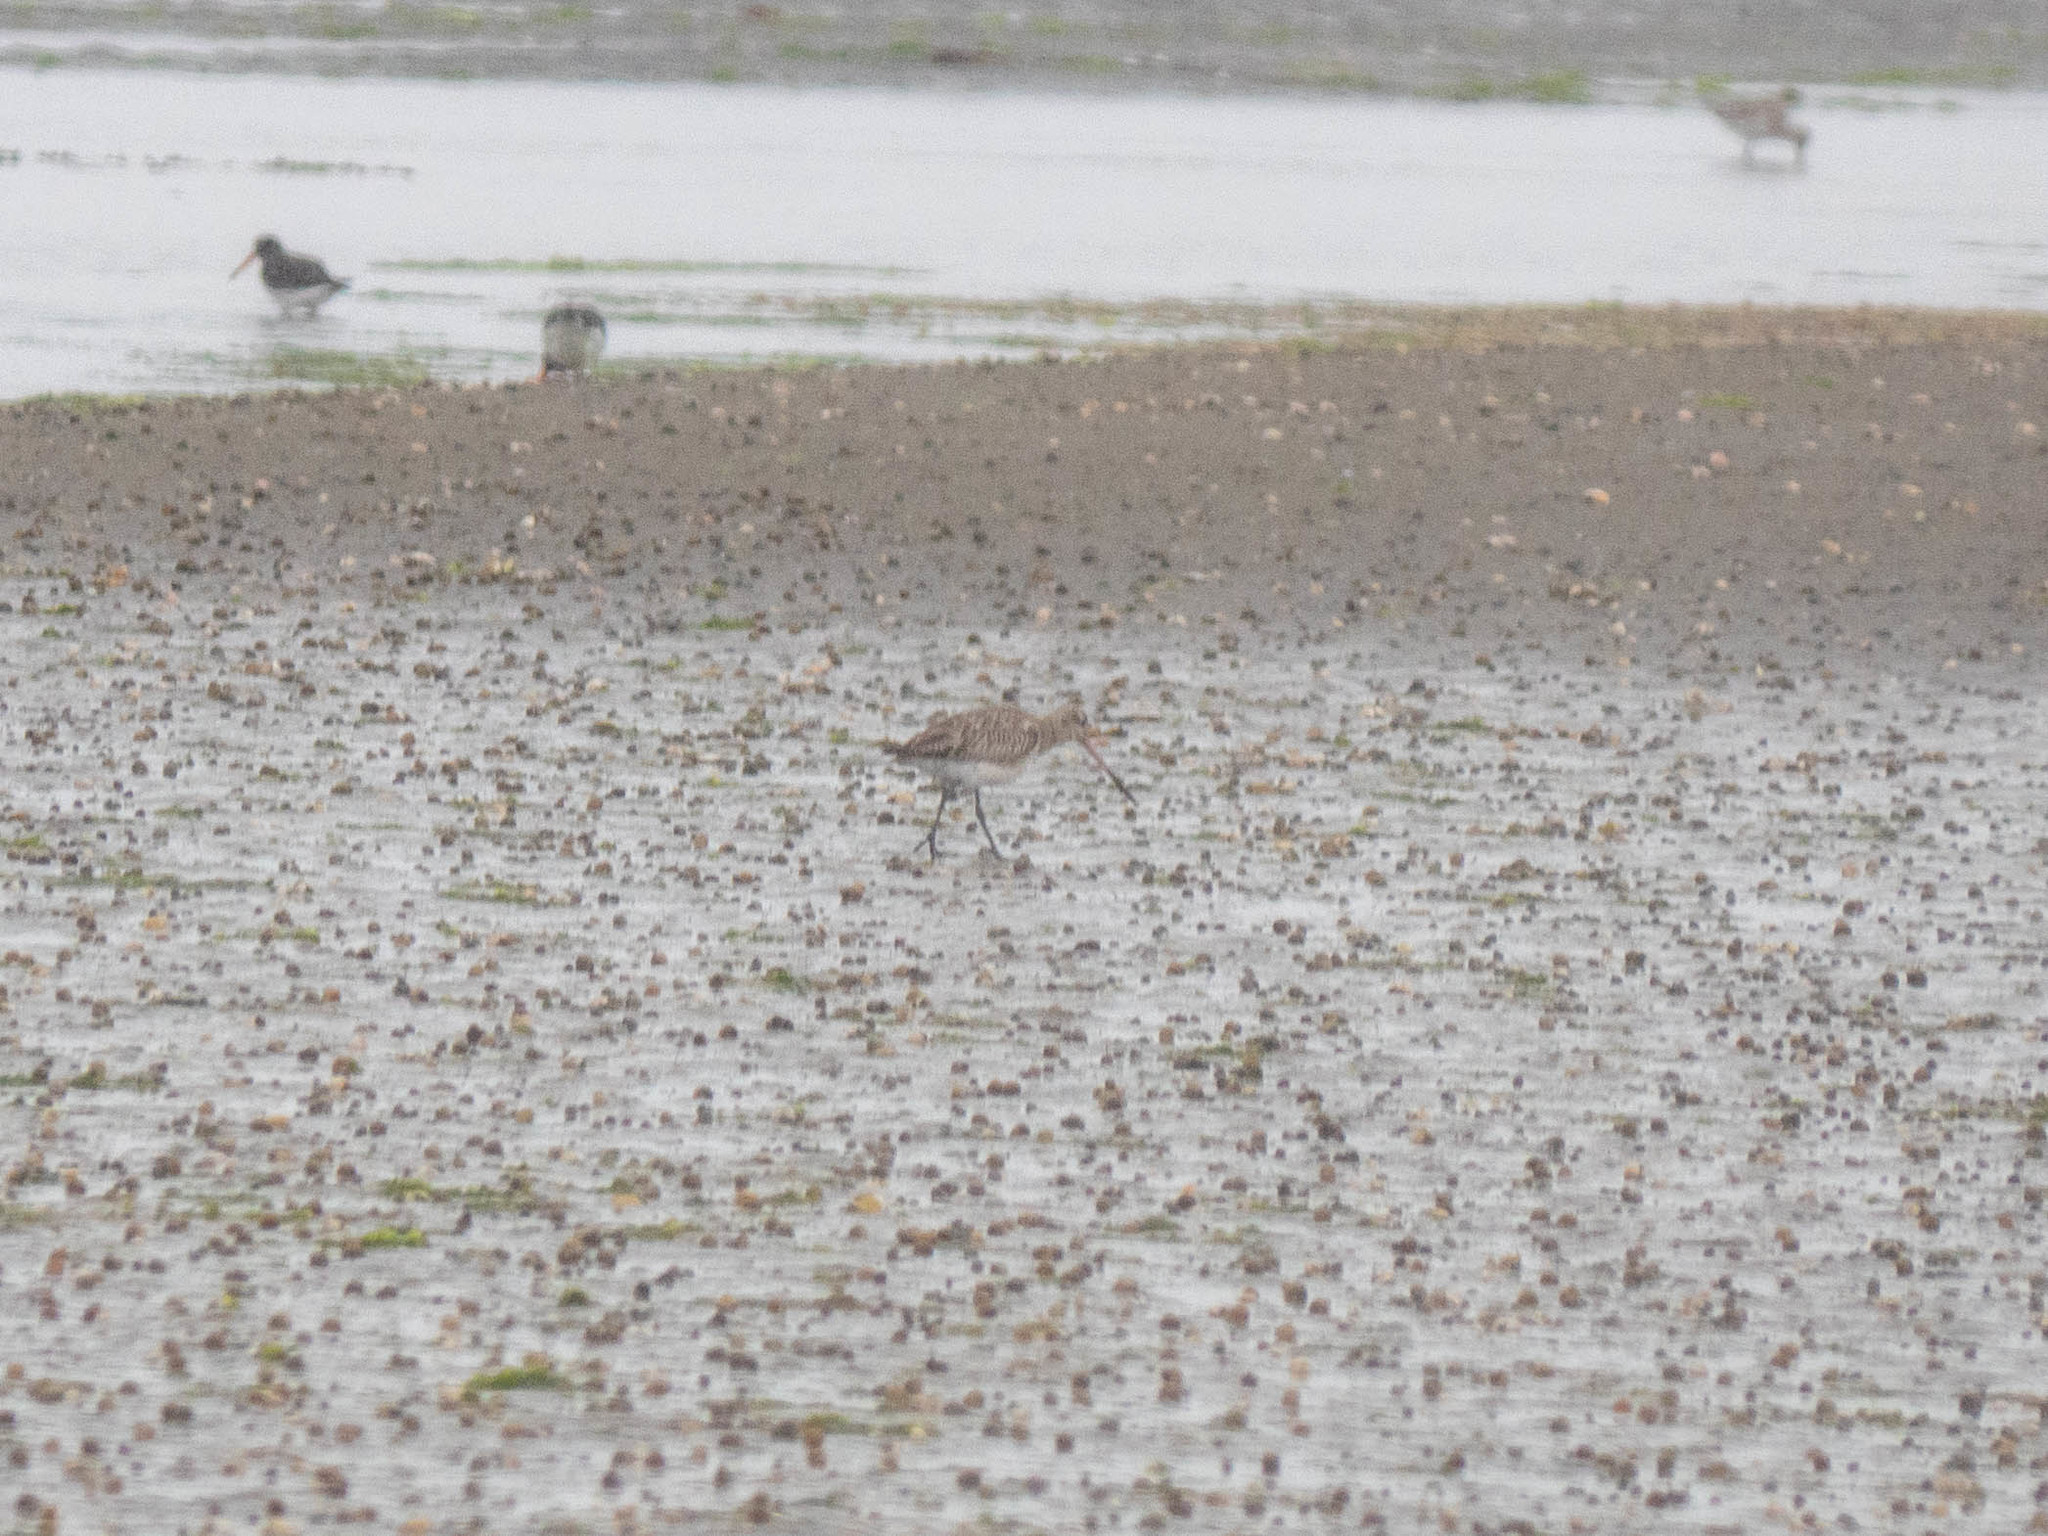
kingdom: Animalia
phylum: Chordata
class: Aves
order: Charadriiformes
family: Scolopacidae
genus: Limosa
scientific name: Limosa lapponica
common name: Bar-tailed godwit
